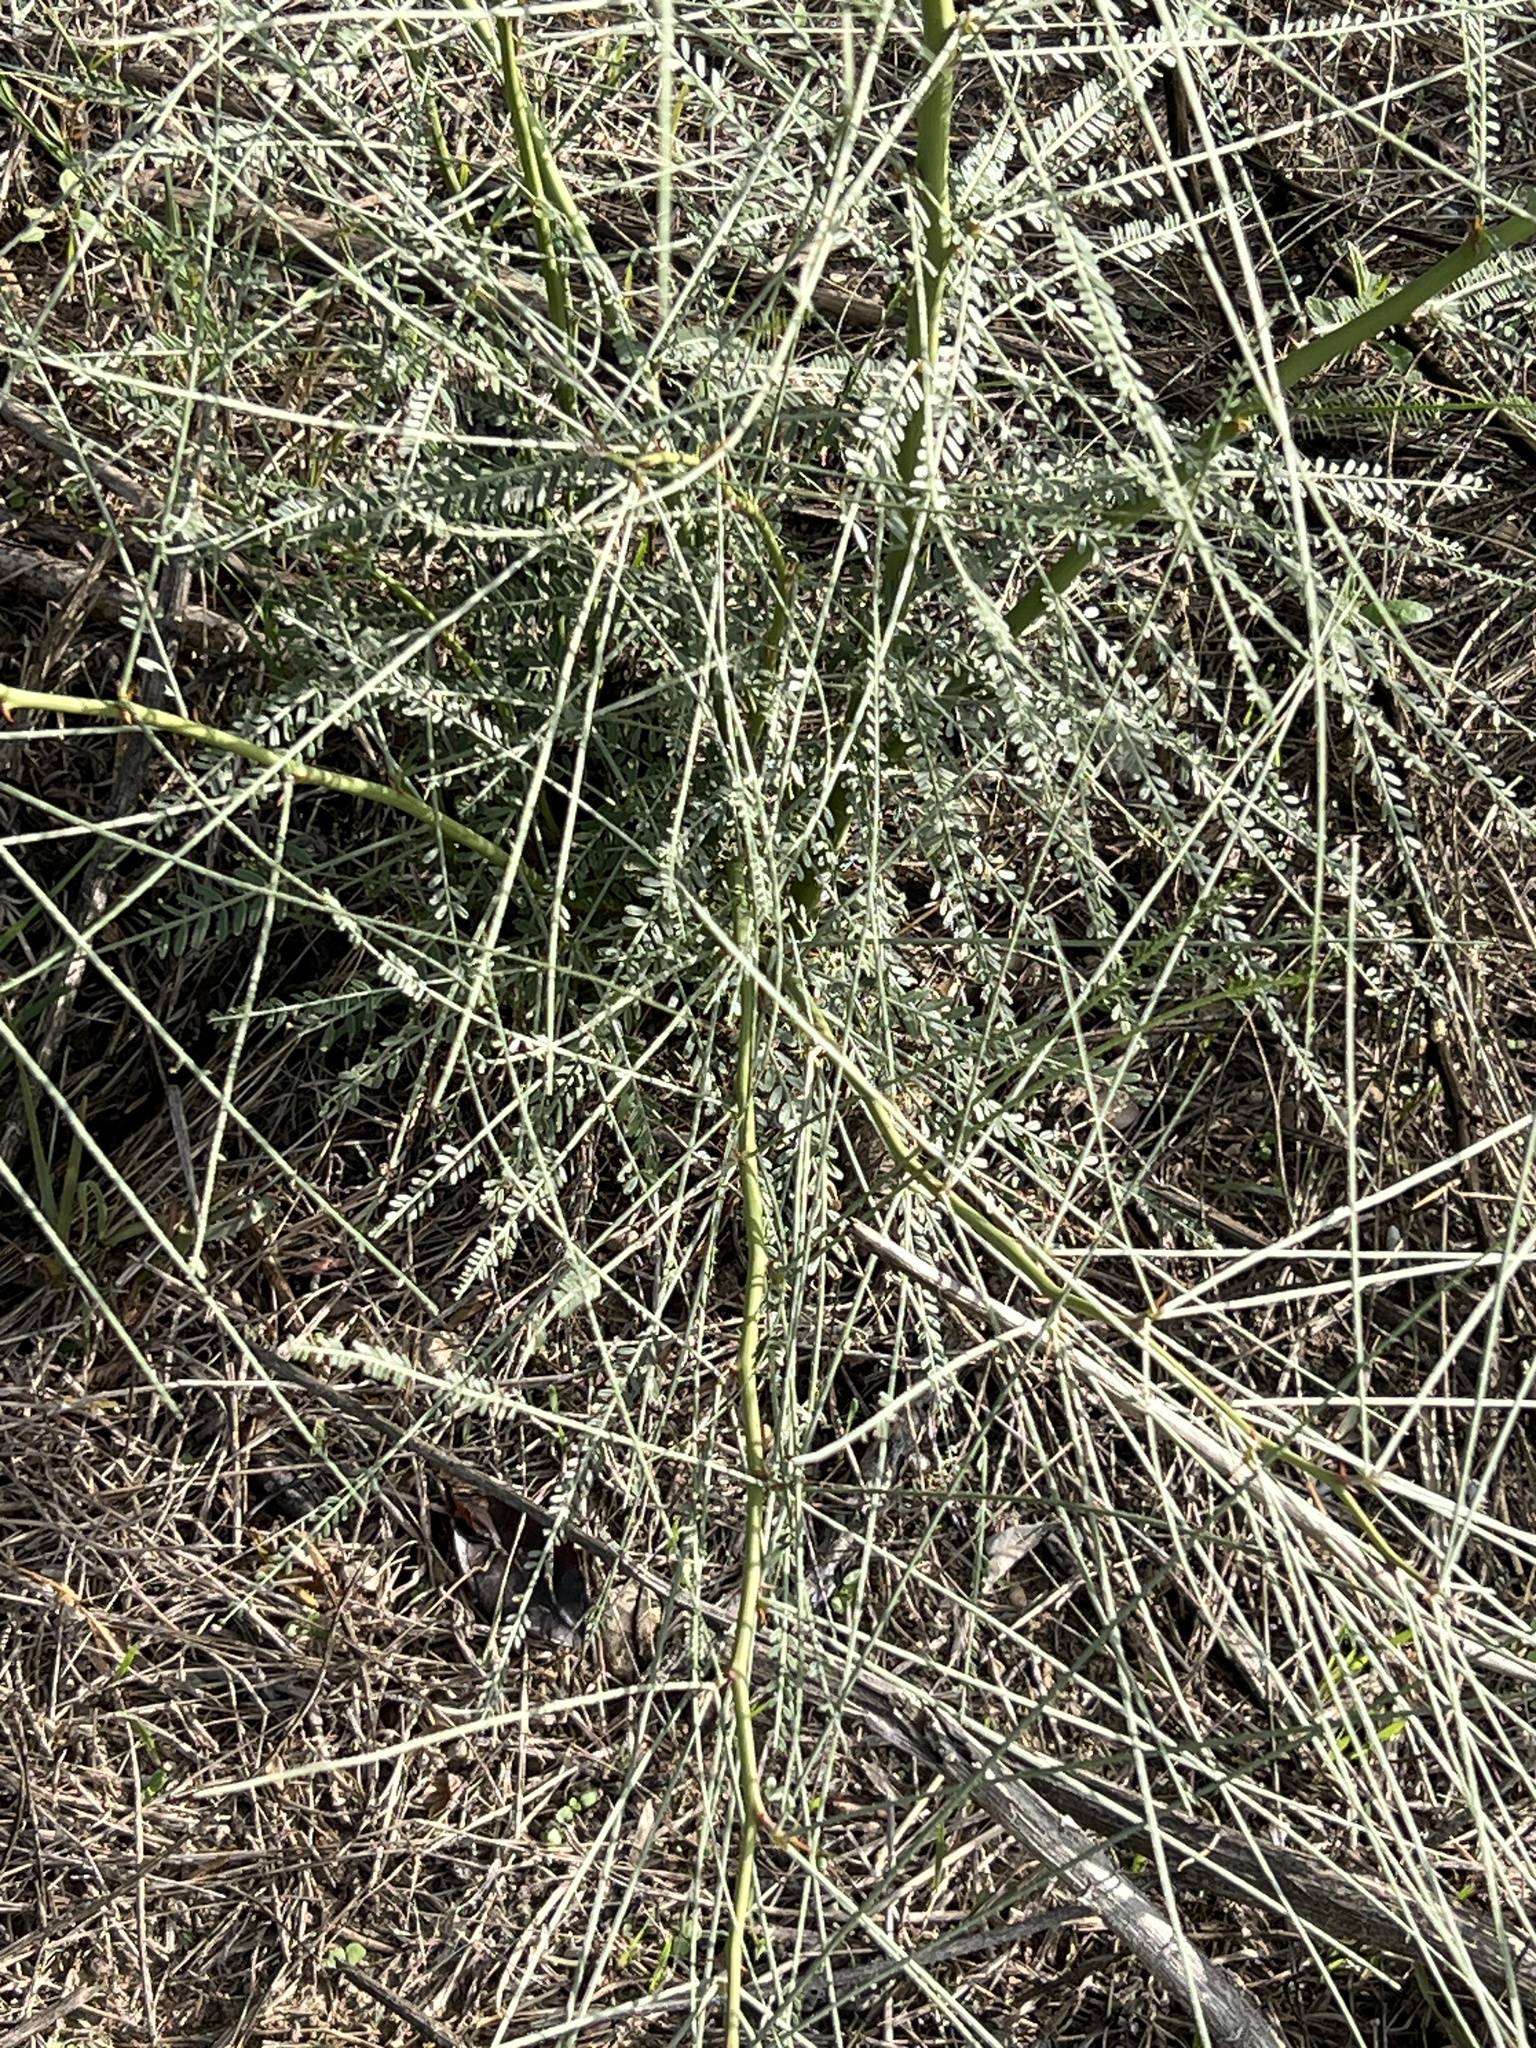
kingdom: Plantae
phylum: Tracheophyta
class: Magnoliopsida
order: Fabales
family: Fabaceae
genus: Parkinsonia
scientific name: Parkinsonia aculeata
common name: Jerusalem thorn
